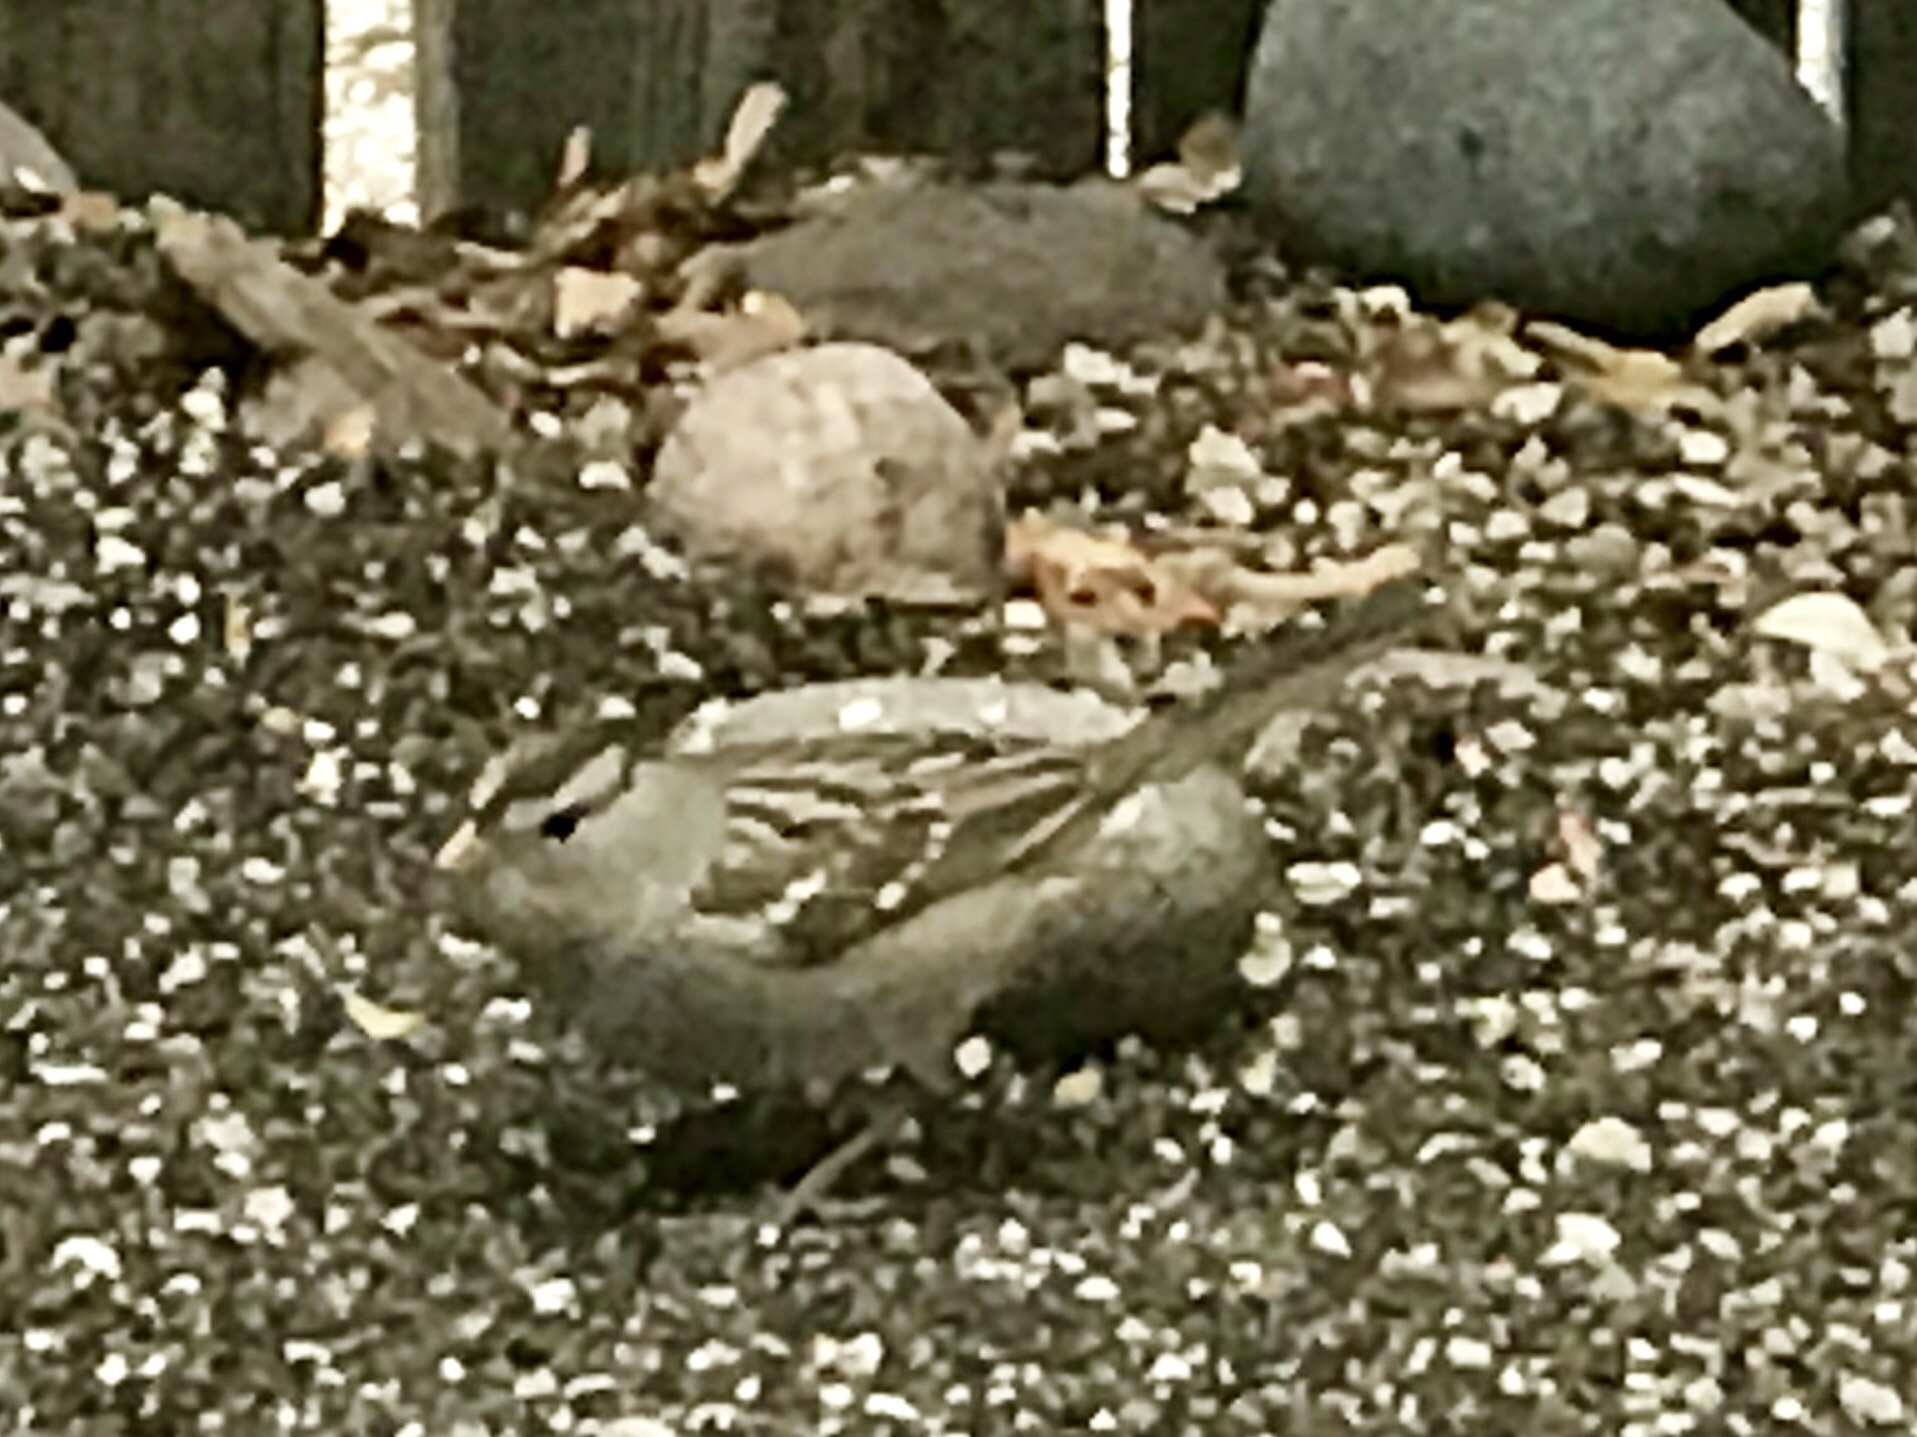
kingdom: Animalia
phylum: Chordata
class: Aves
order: Passeriformes
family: Passerellidae
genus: Zonotrichia
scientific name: Zonotrichia leucophrys
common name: White-crowned sparrow
